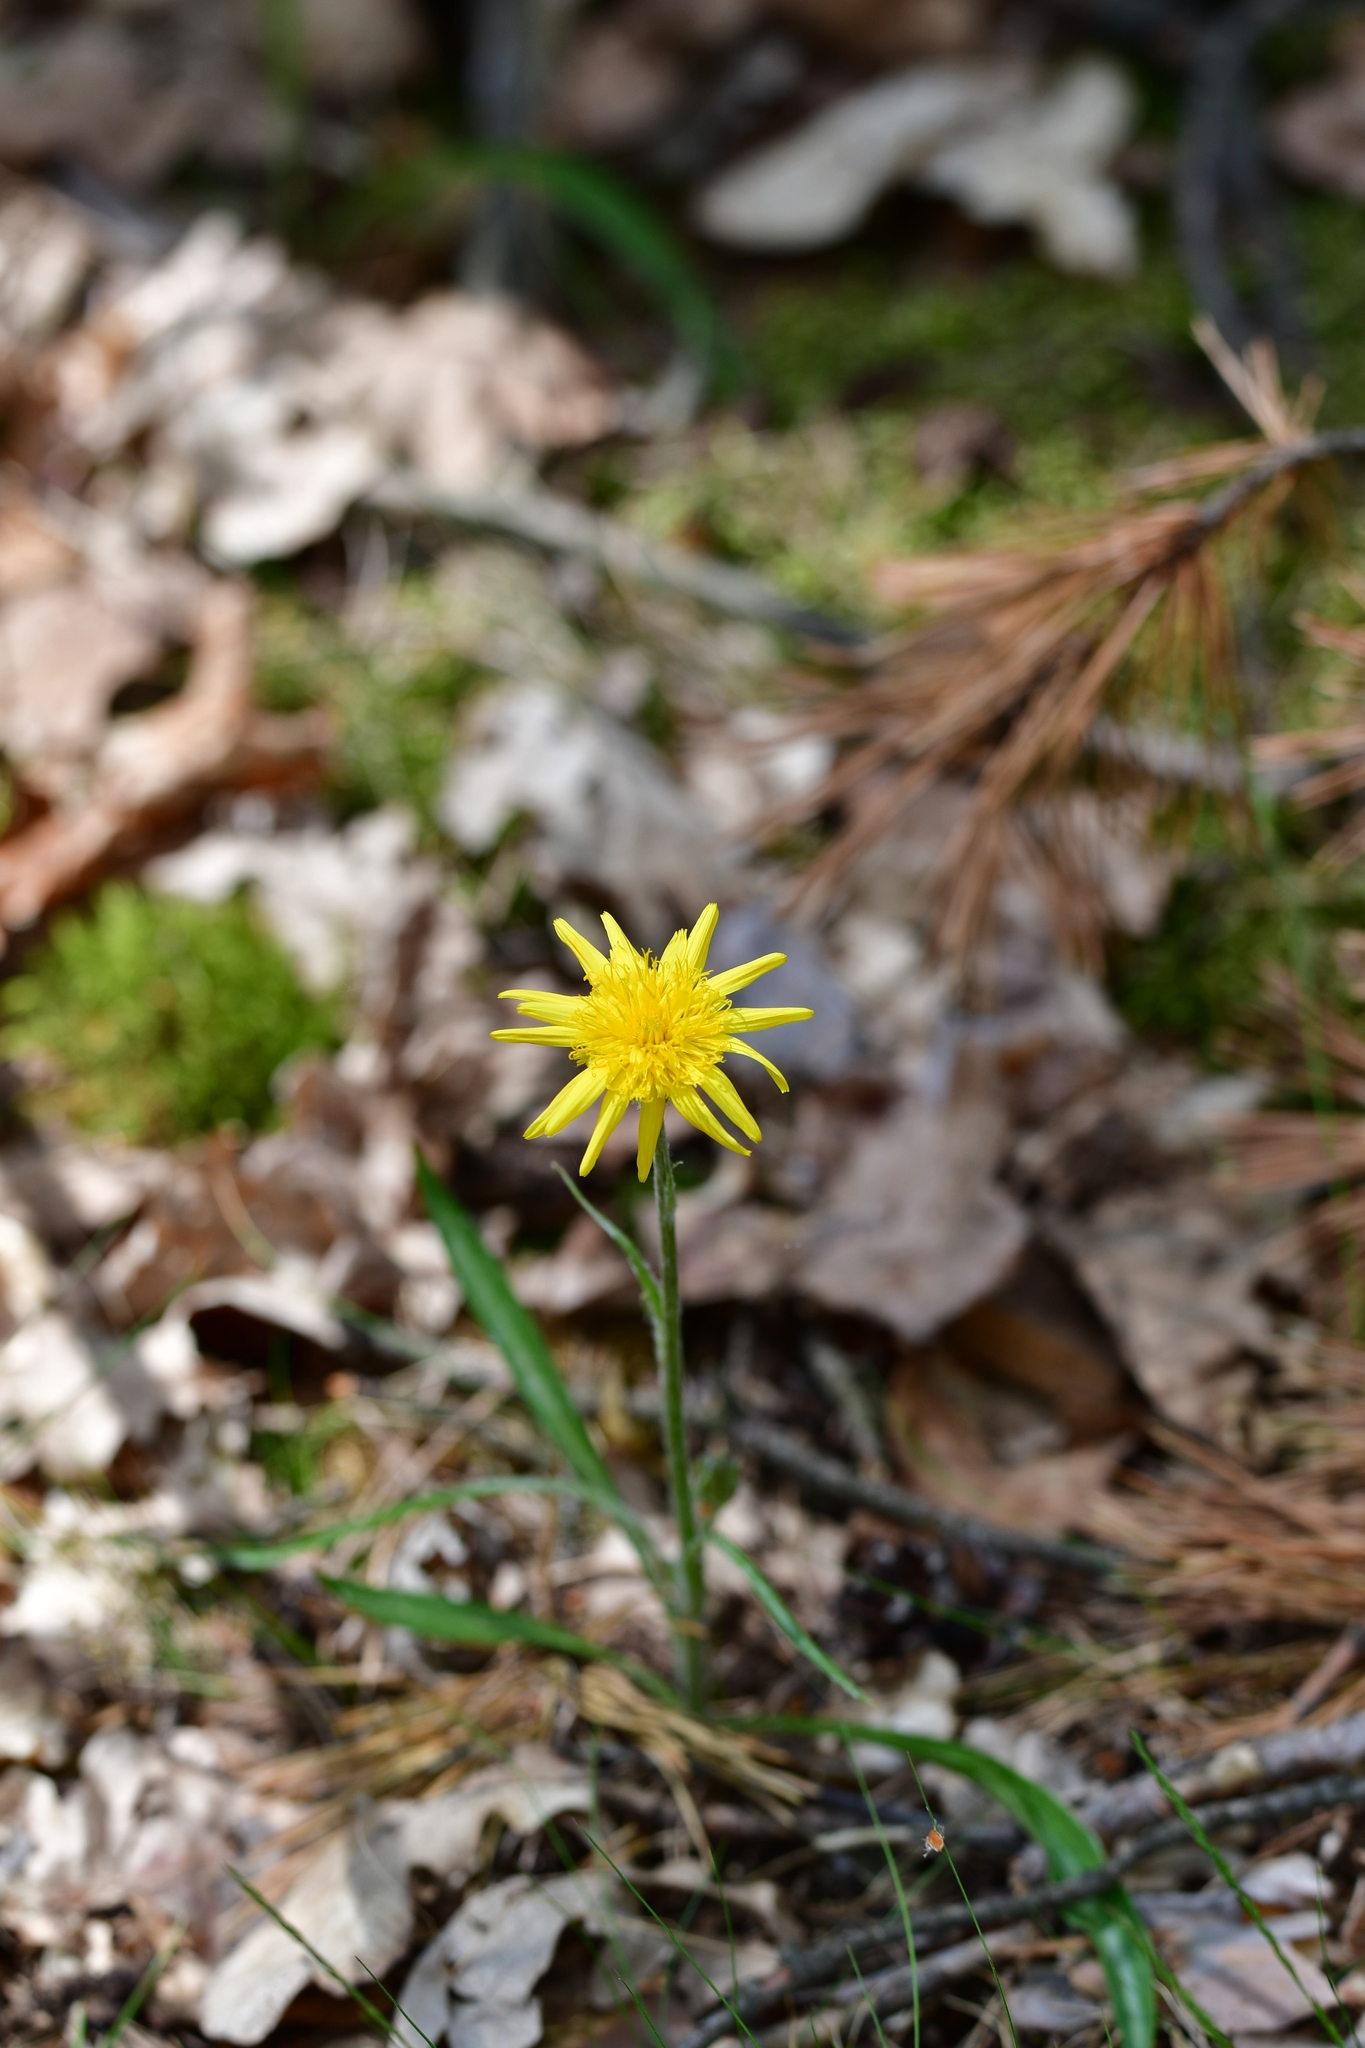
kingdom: Plantae
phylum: Tracheophyta
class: Magnoliopsida
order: Asterales
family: Asteraceae
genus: Scorzonera
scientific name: Scorzonera humilis
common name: Viper's-grass
